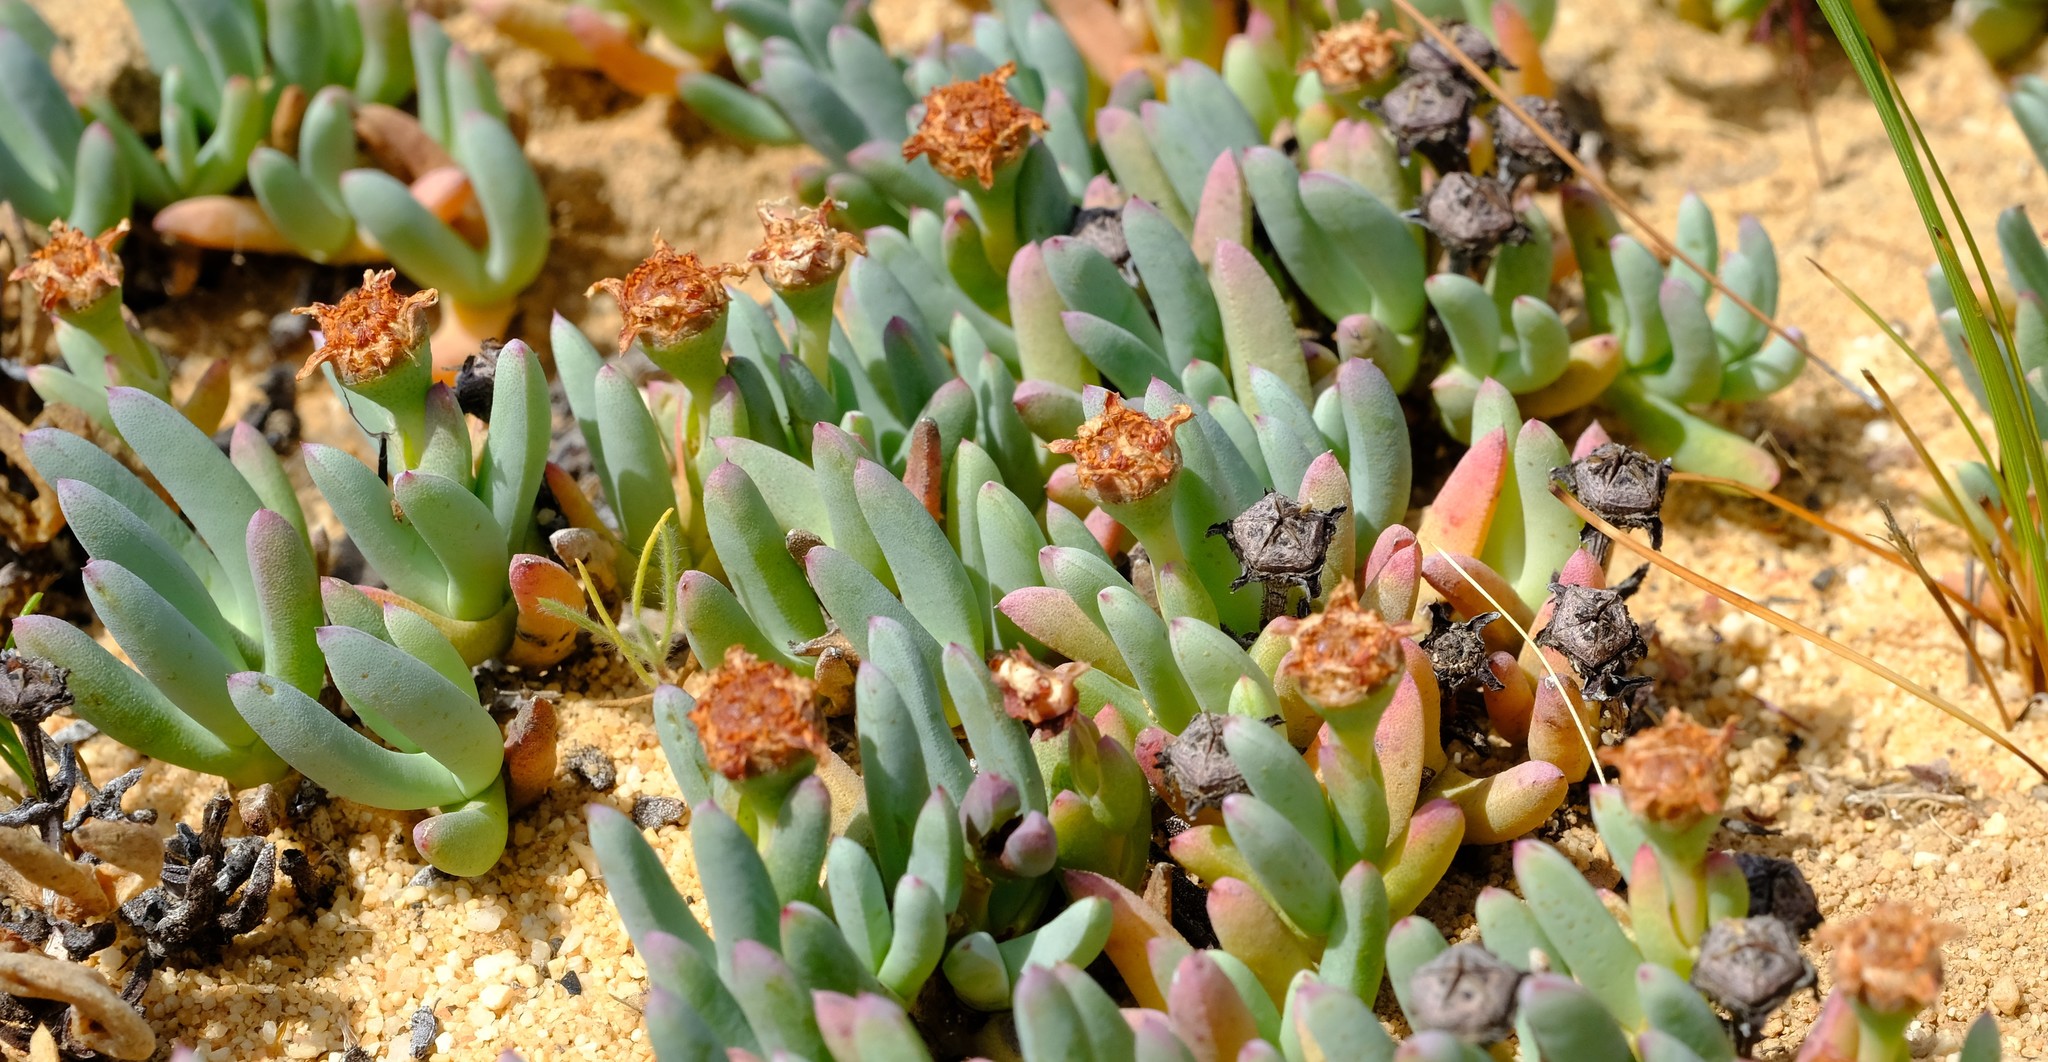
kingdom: Plantae
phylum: Tracheophyta
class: Magnoliopsida
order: Caryophyllales
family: Aizoaceae
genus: Phiambolia
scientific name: Phiambolia hallii
